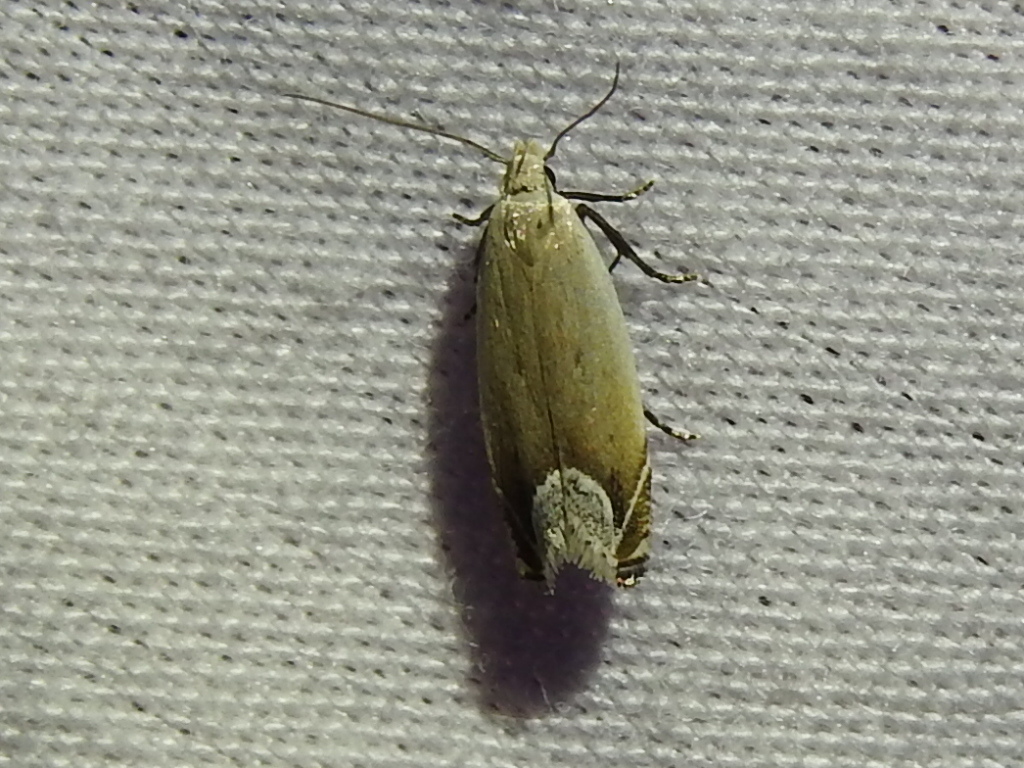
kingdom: Animalia
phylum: Arthropoda
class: Insecta
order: Lepidoptera
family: Gelechiidae
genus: Anacampsis
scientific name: Anacampsis paltodoriella
